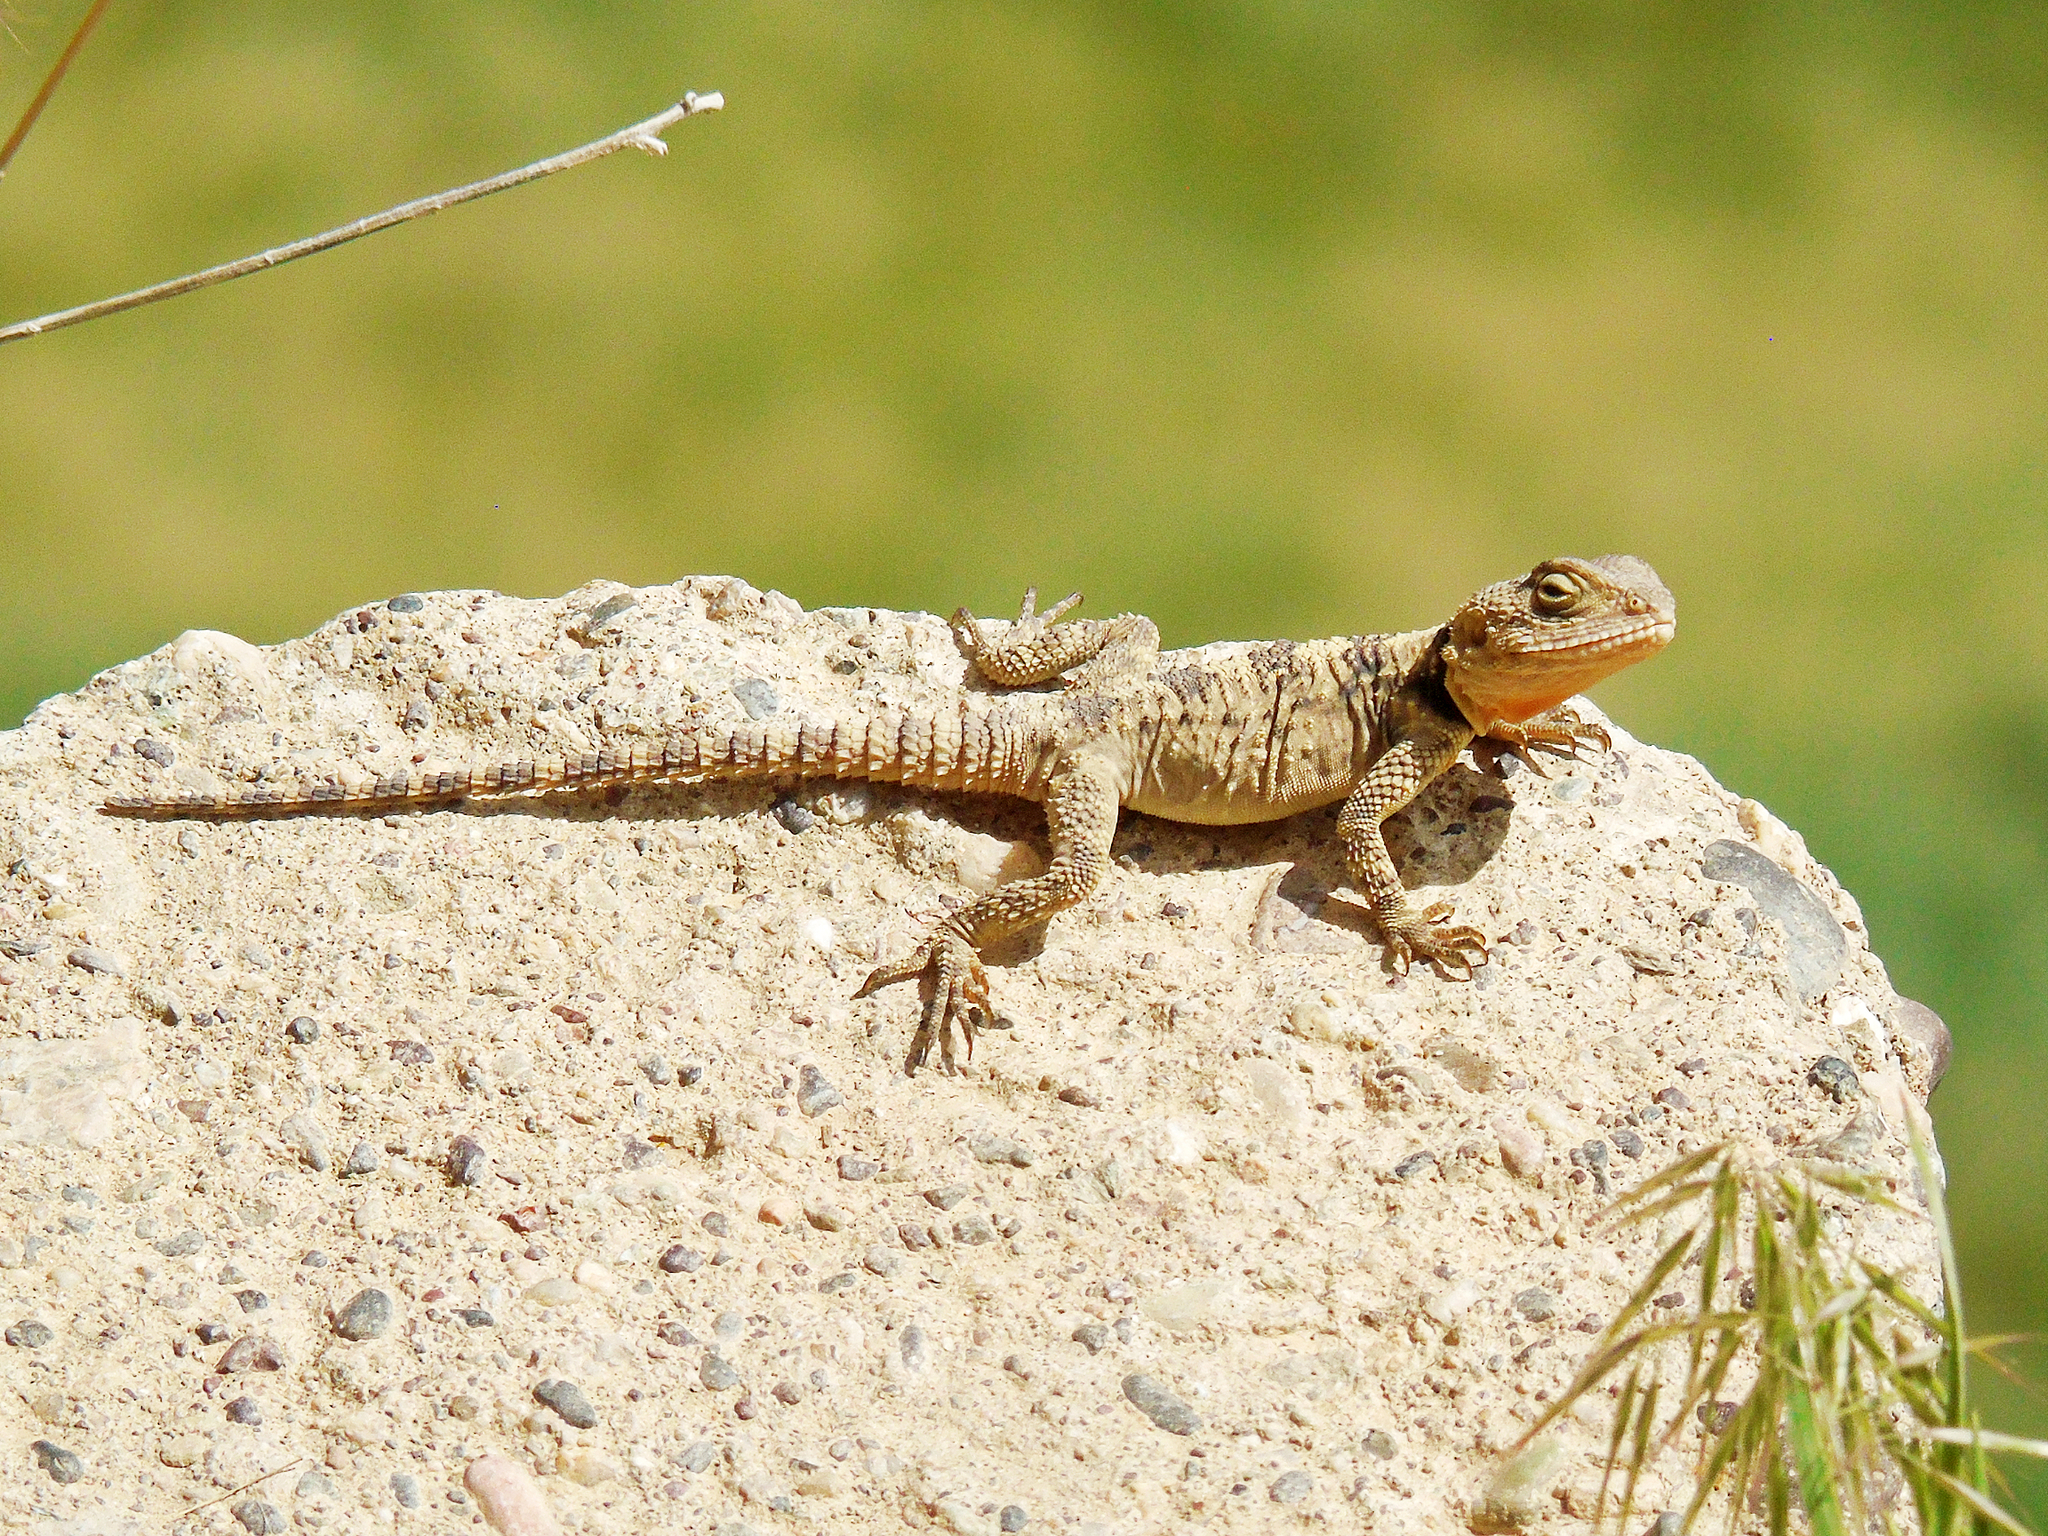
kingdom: Animalia
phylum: Chordata
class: Squamata
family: Agamidae
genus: Stellagama
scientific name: Stellagama stellio
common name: Starred agama
